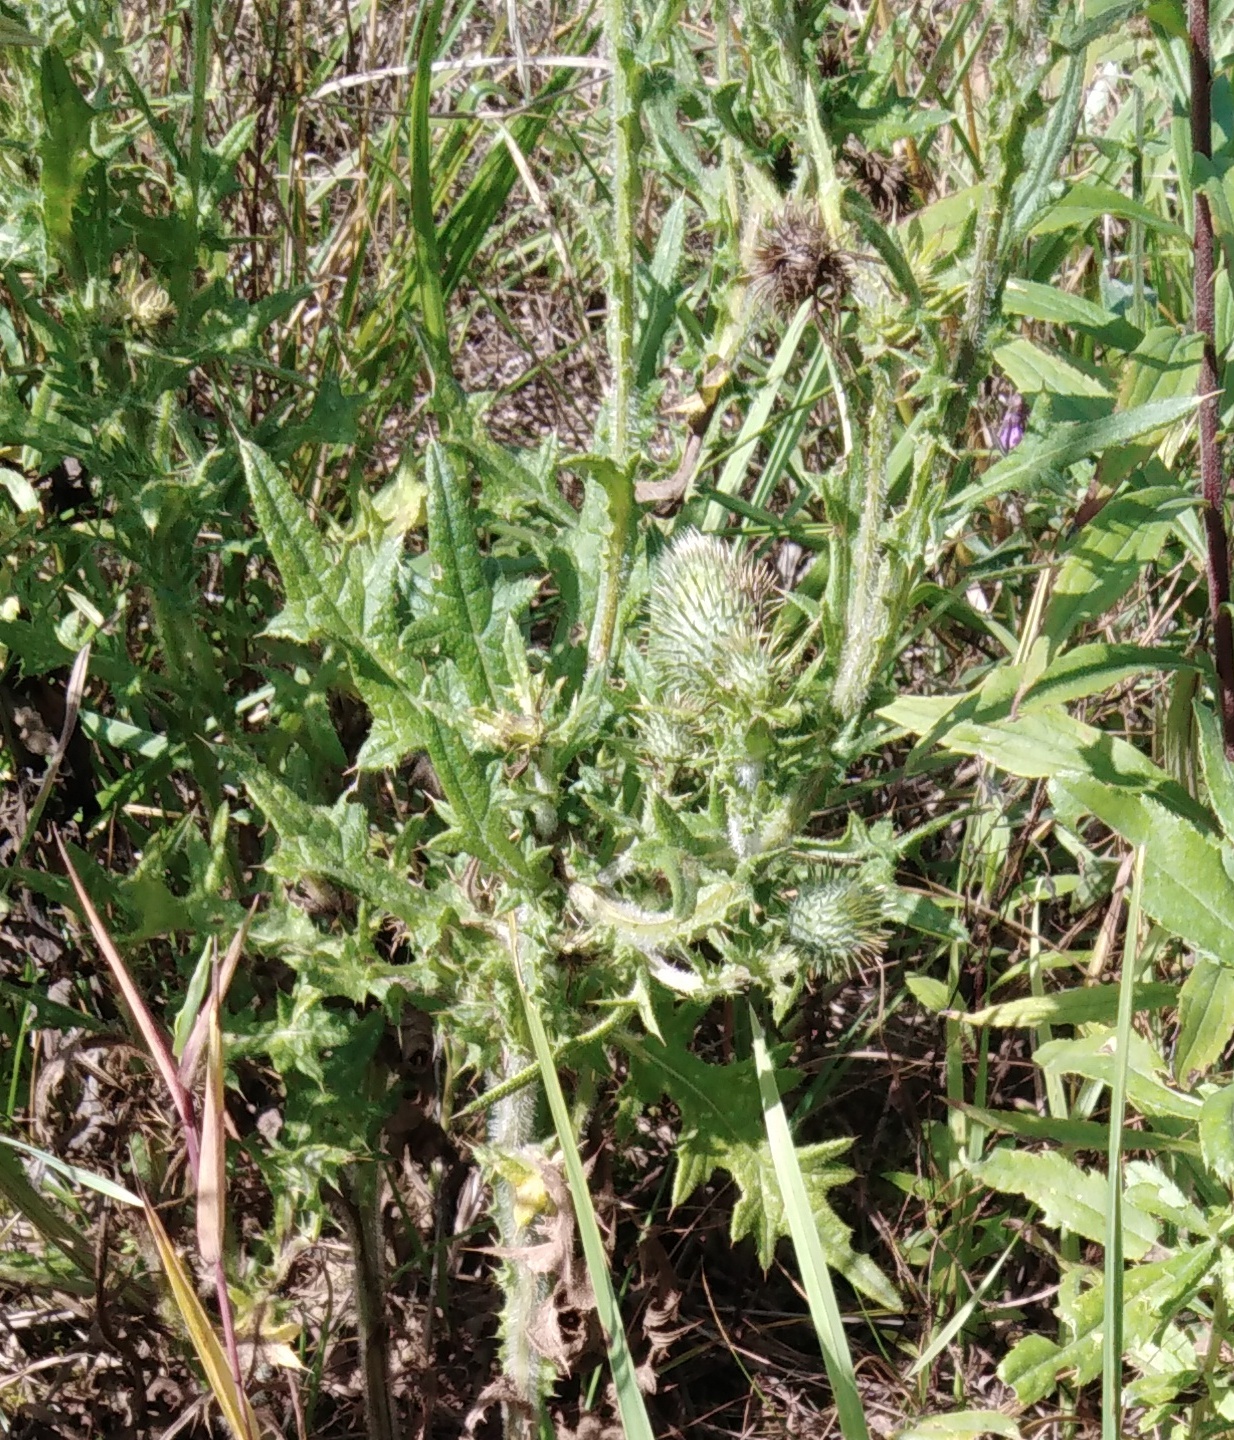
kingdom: Plantae
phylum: Tracheophyta
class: Magnoliopsida
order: Asterales
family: Asteraceae
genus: Cirsium
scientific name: Cirsium vulgare
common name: Bull thistle
